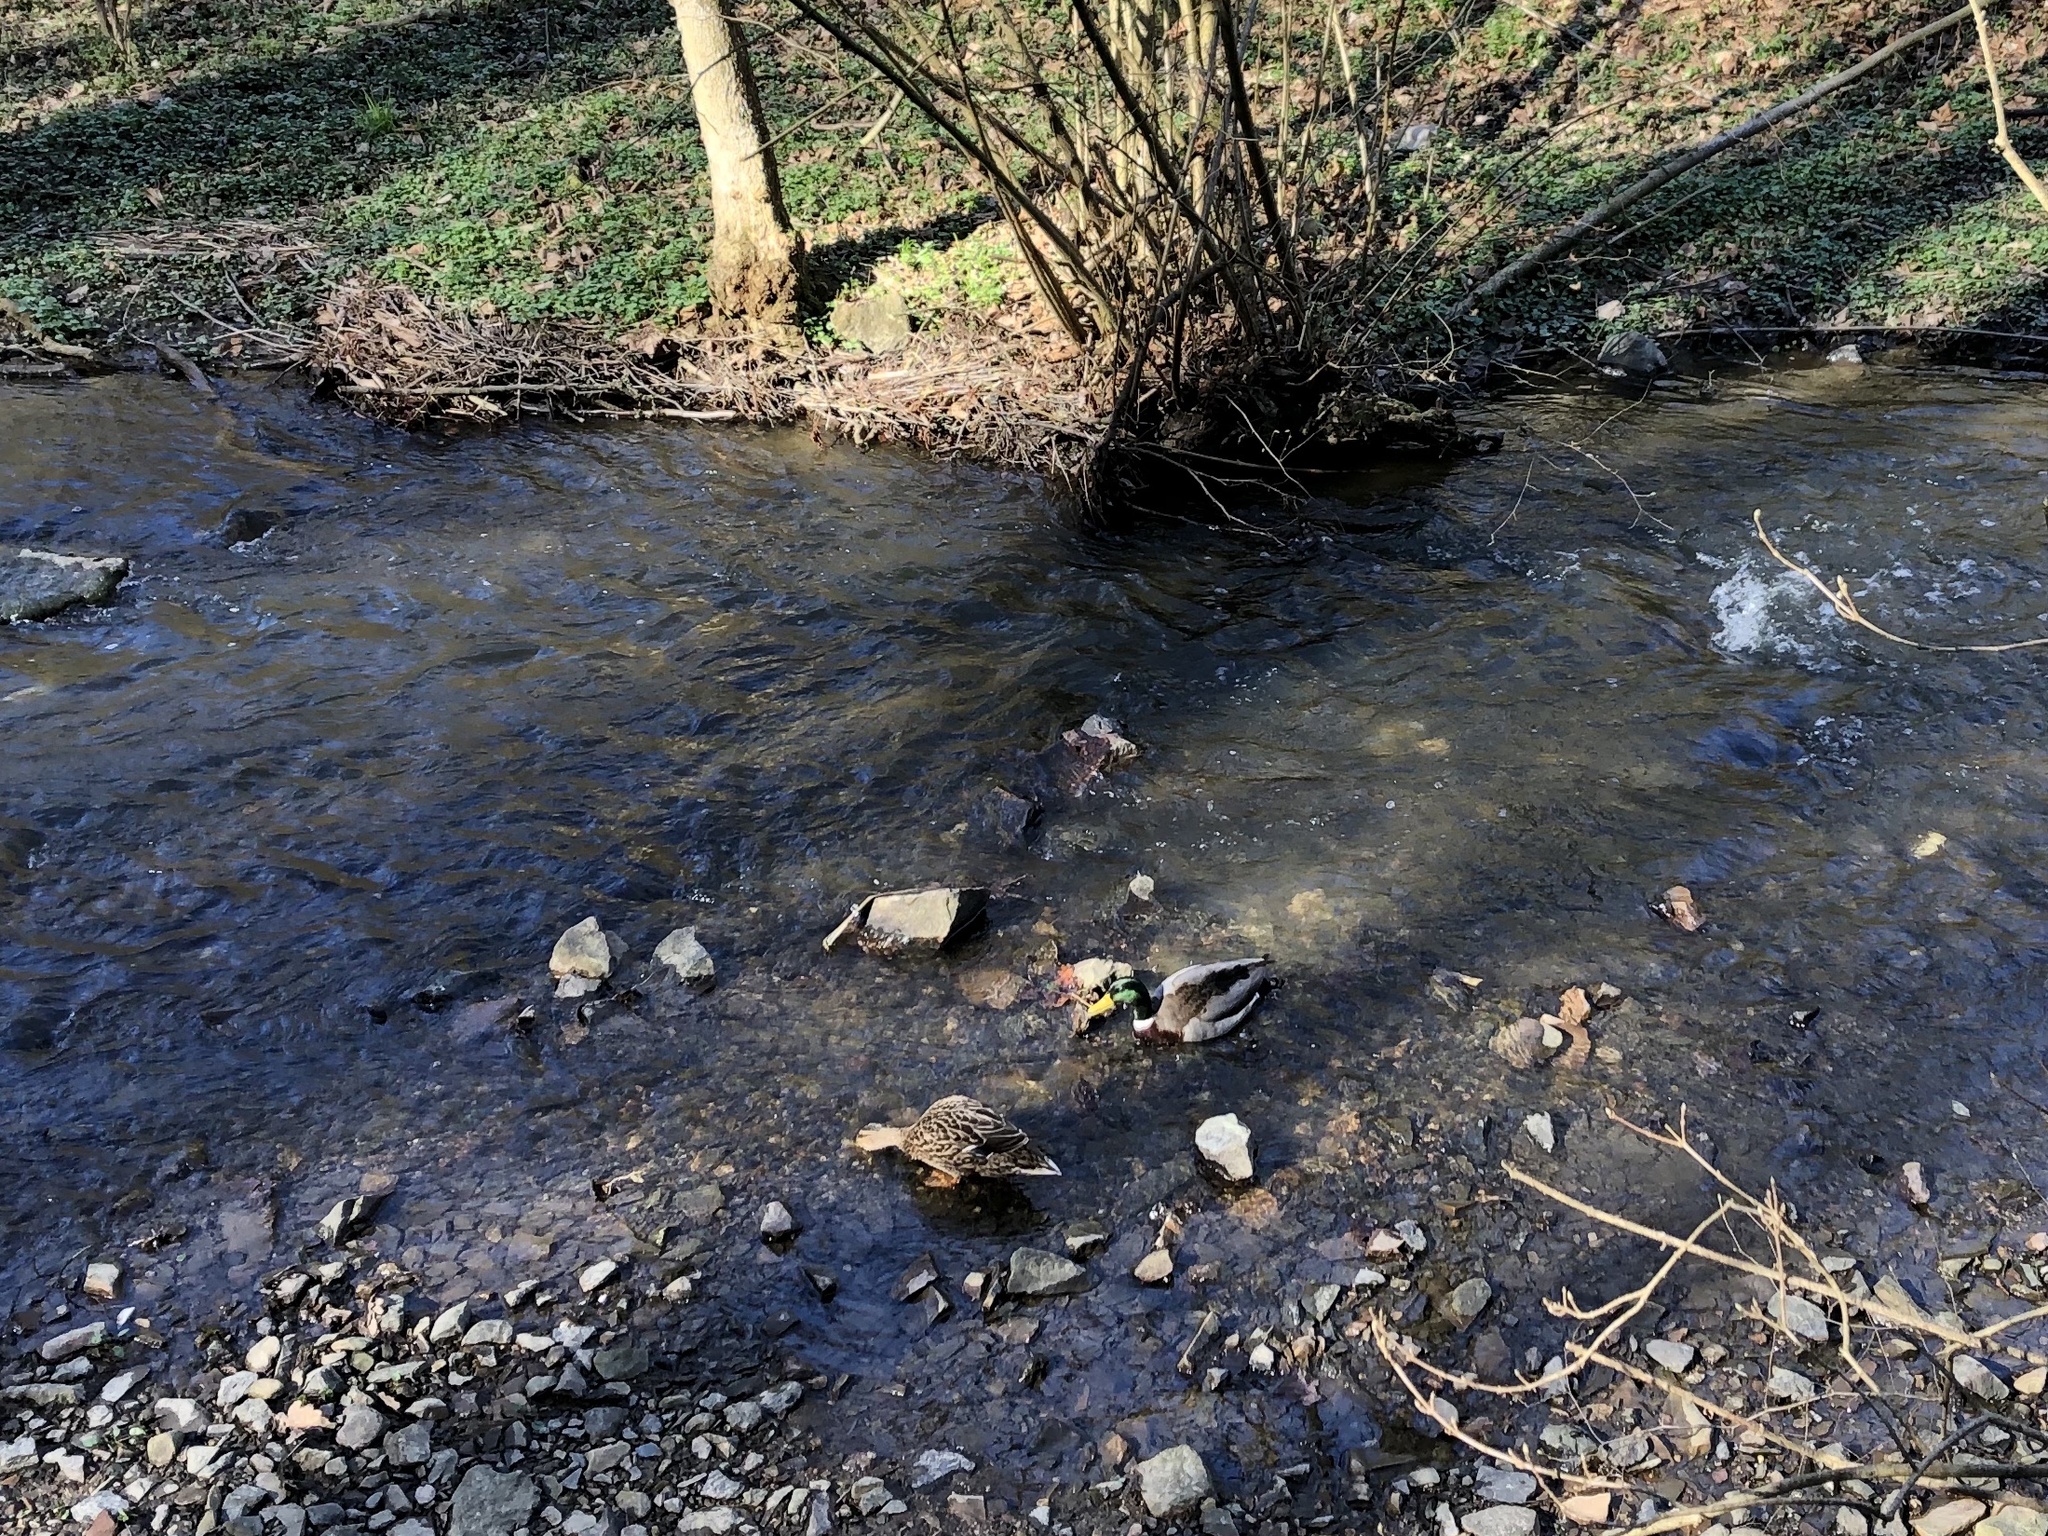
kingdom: Animalia
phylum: Chordata
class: Aves
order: Anseriformes
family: Anatidae
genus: Anas
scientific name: Anas platyrhynchos
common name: Mallard
